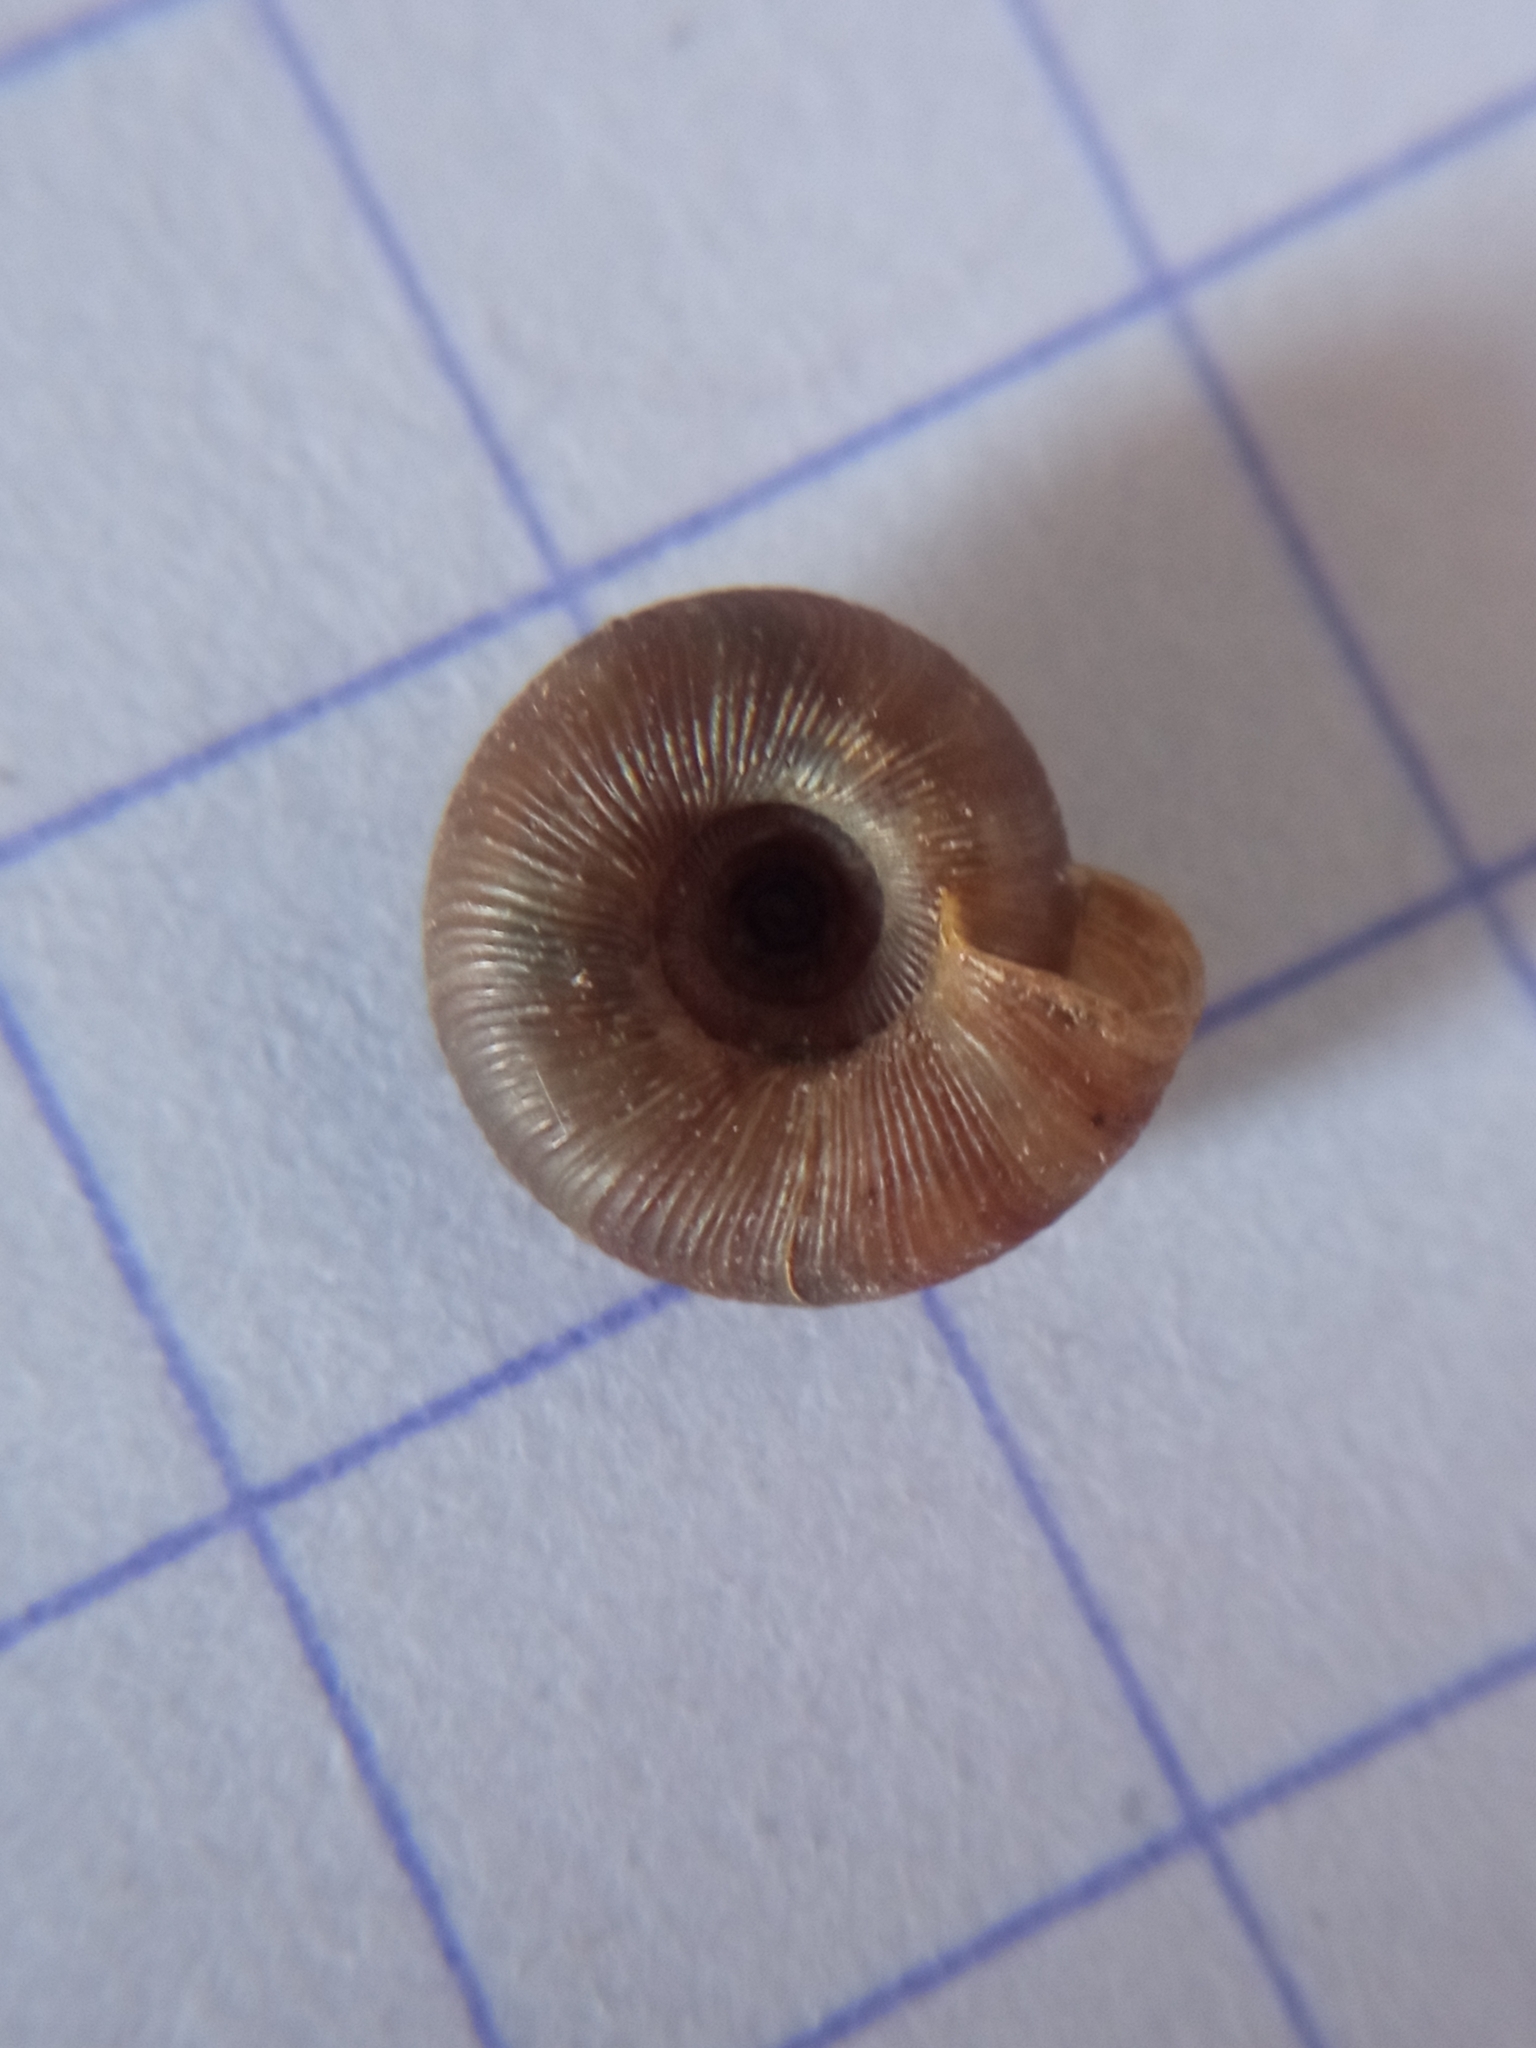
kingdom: Animalia
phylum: Mollusca
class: Gastropoda
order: Stylommatophora
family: Discidae
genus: Discus
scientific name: Discus rotundatus
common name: Rounded snail
